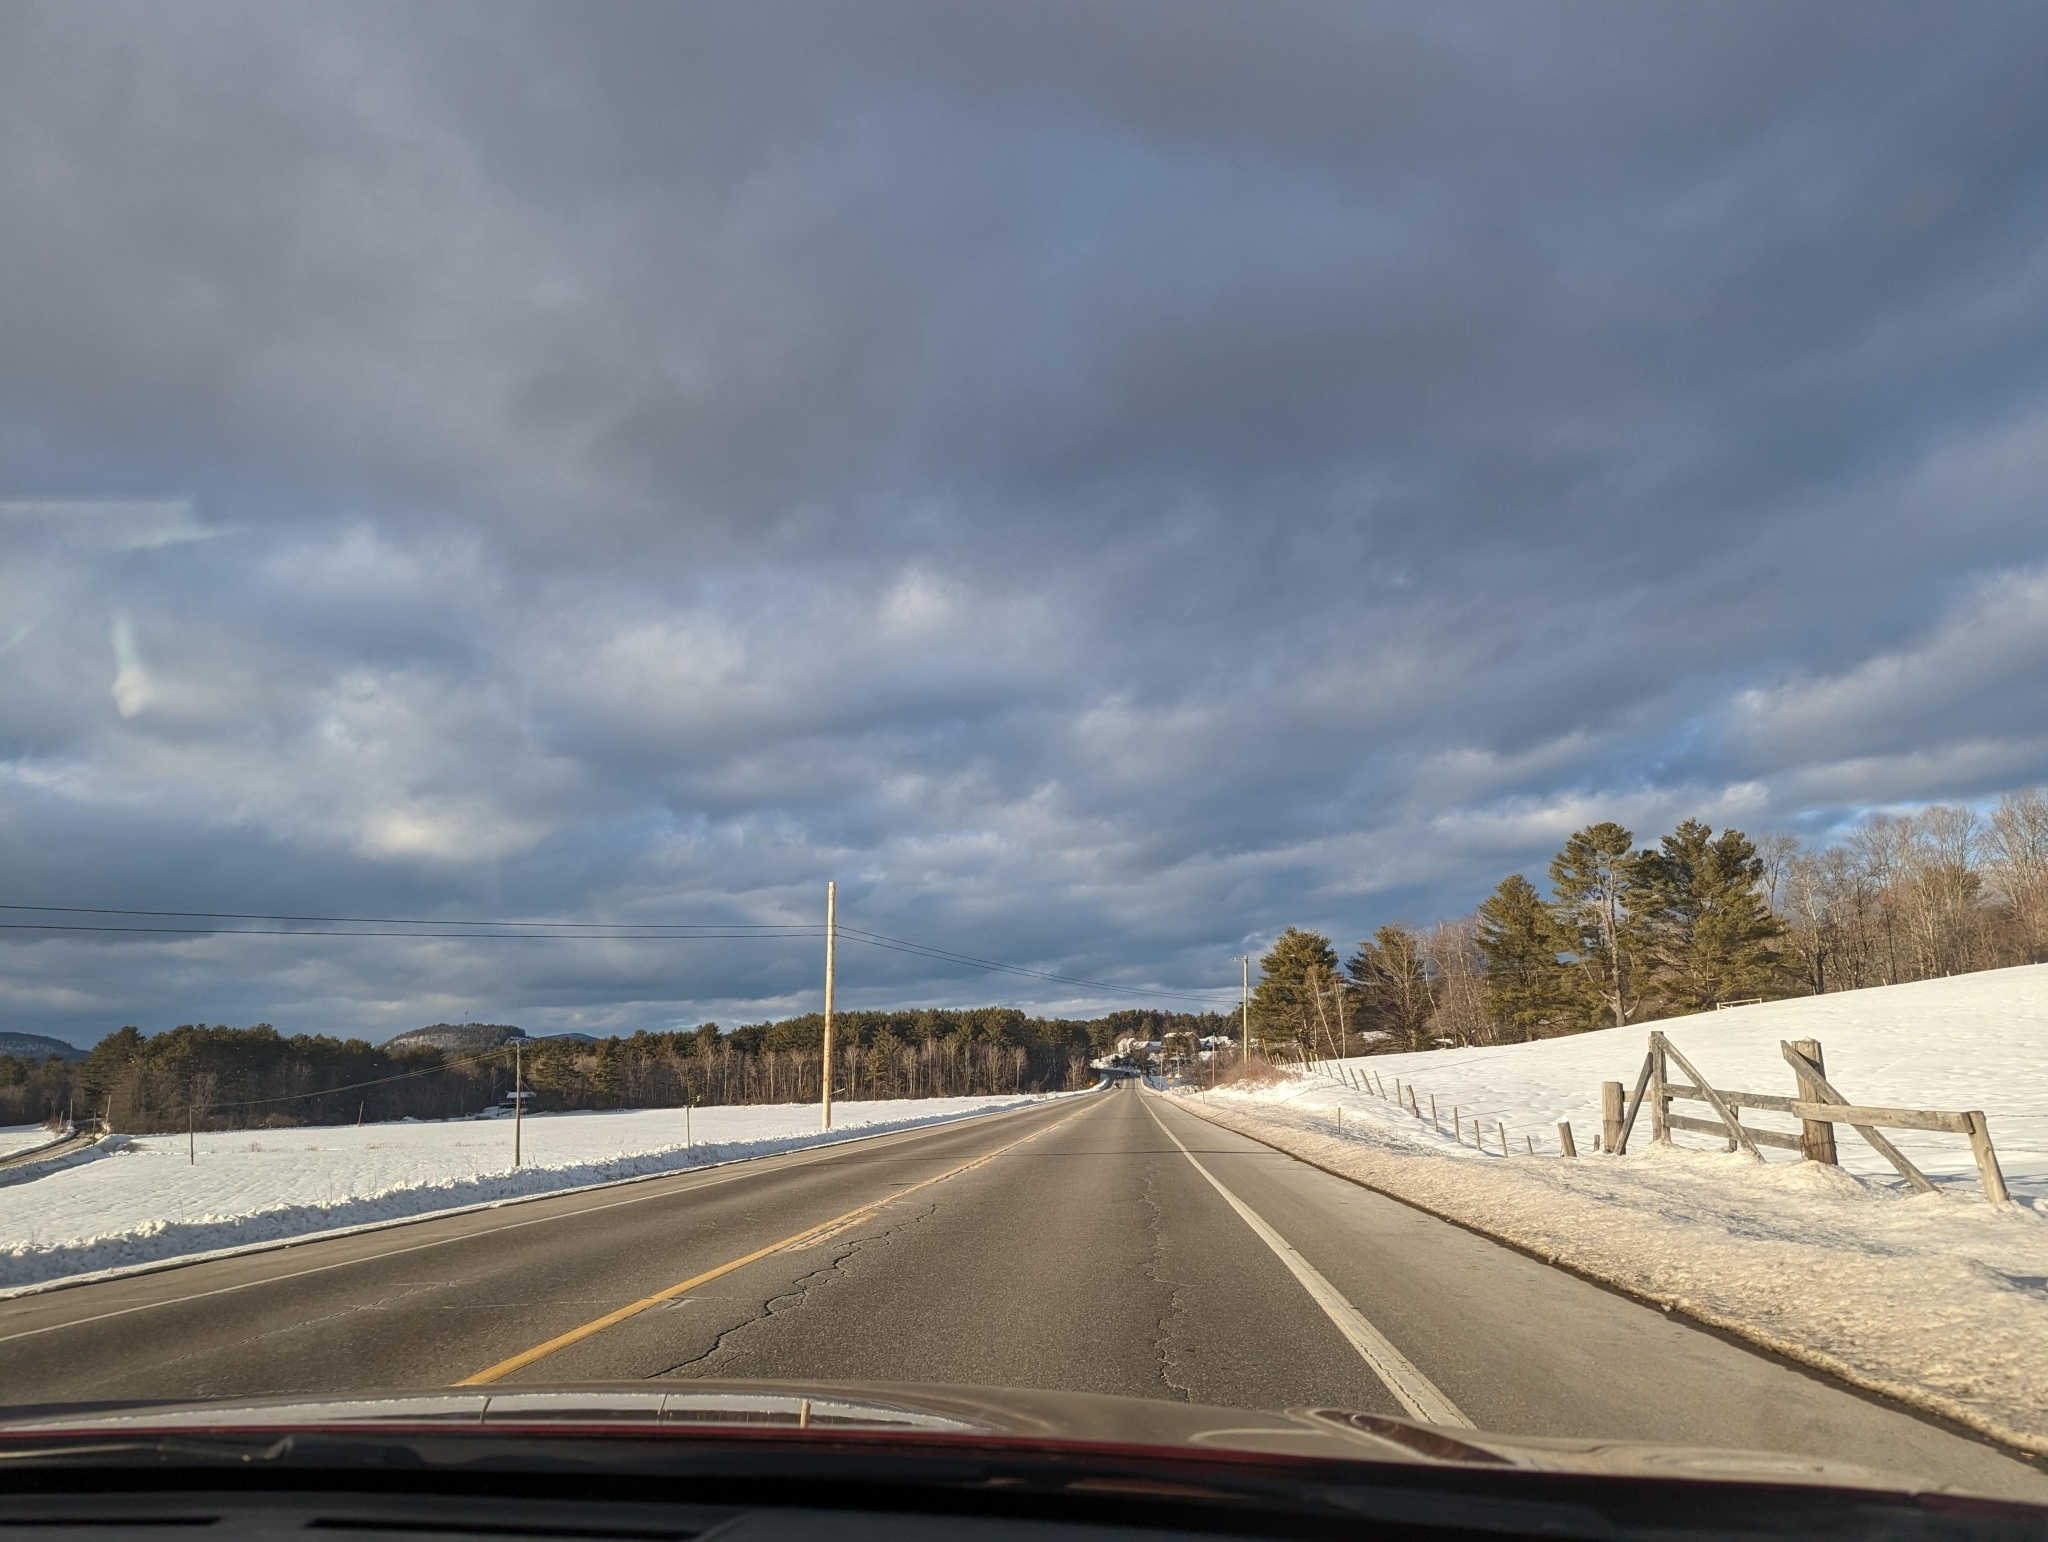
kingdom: Plantae
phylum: Tracheophyta
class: Pinopsida
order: Pinales
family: Pinaceae
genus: Pinus
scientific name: Pinus strobus
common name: Weymouth pine
